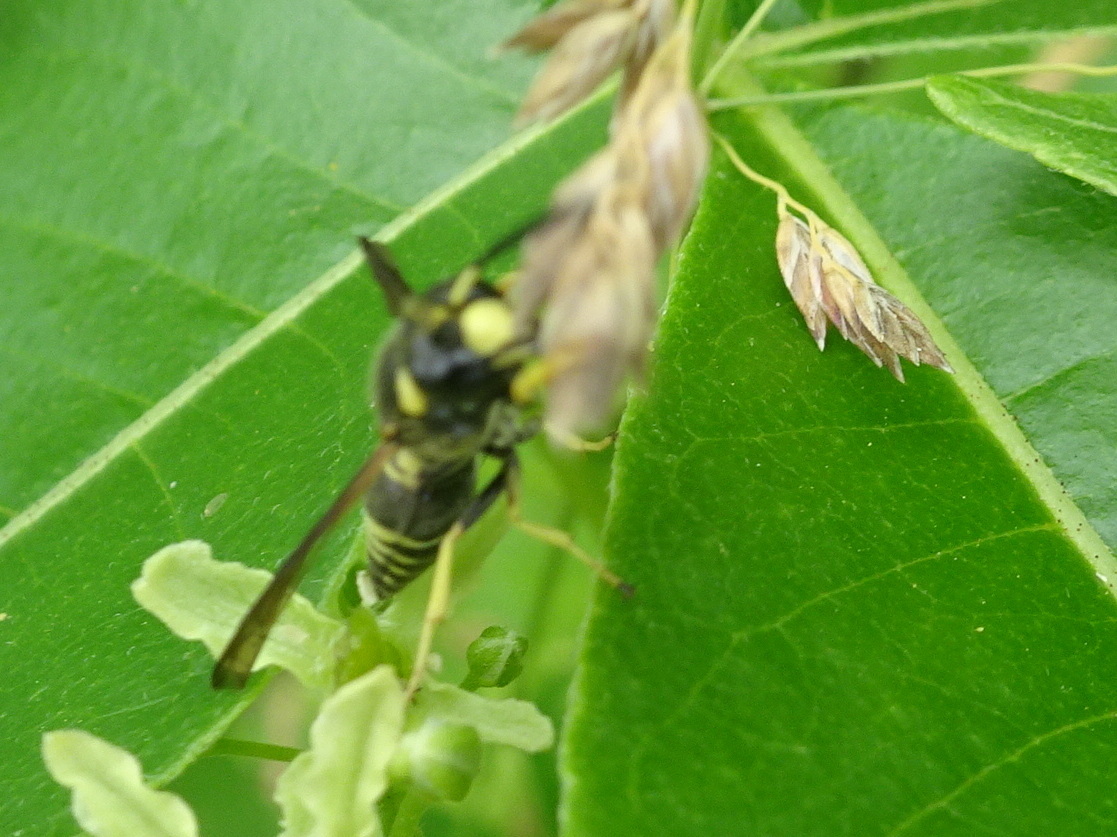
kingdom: Animalia
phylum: Arthropoda
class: Insecta
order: Hymenoptera
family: Eumenidae
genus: Euodynerus
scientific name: Euodynerus foraminatus
